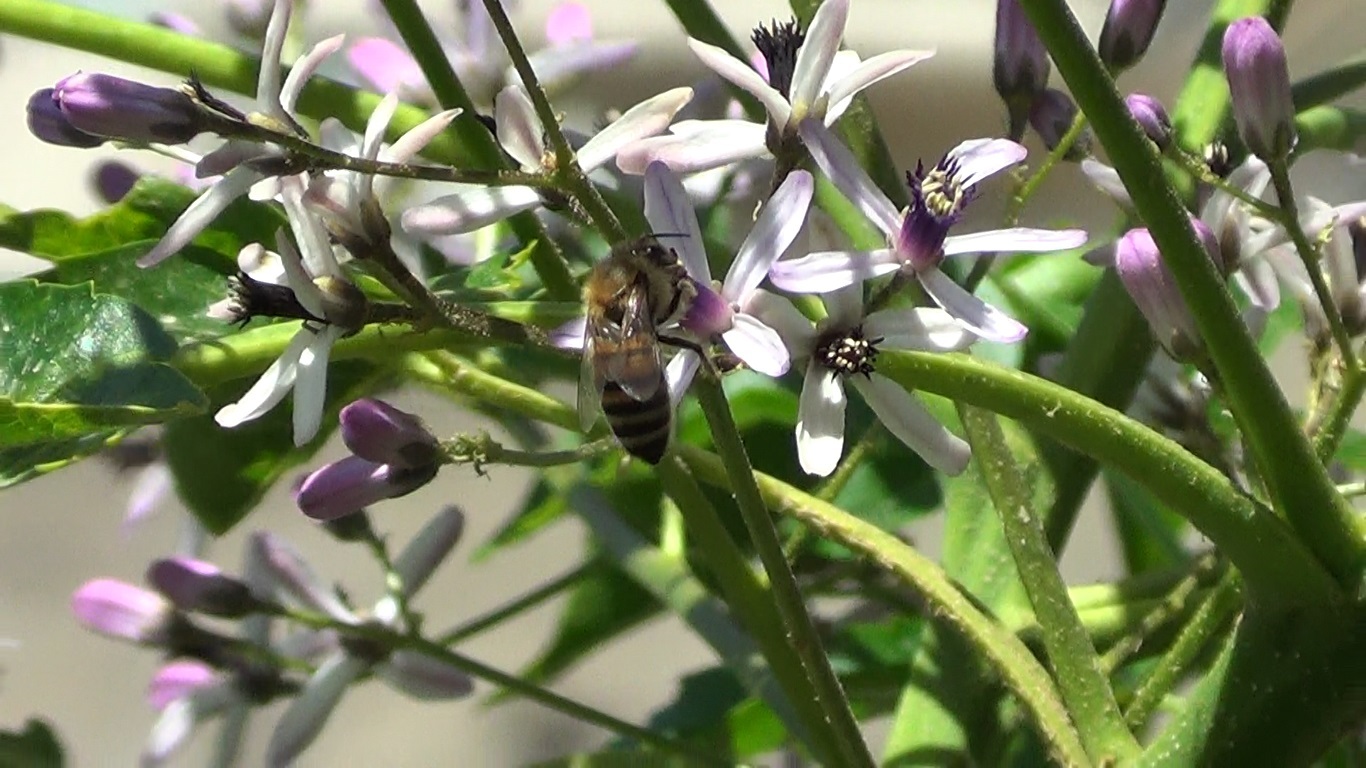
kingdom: Animalia
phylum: Arthropoda
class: Insecta
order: Hymenoptera
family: Apidae
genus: Apis
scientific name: Apis mellifera
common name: Honey bee
